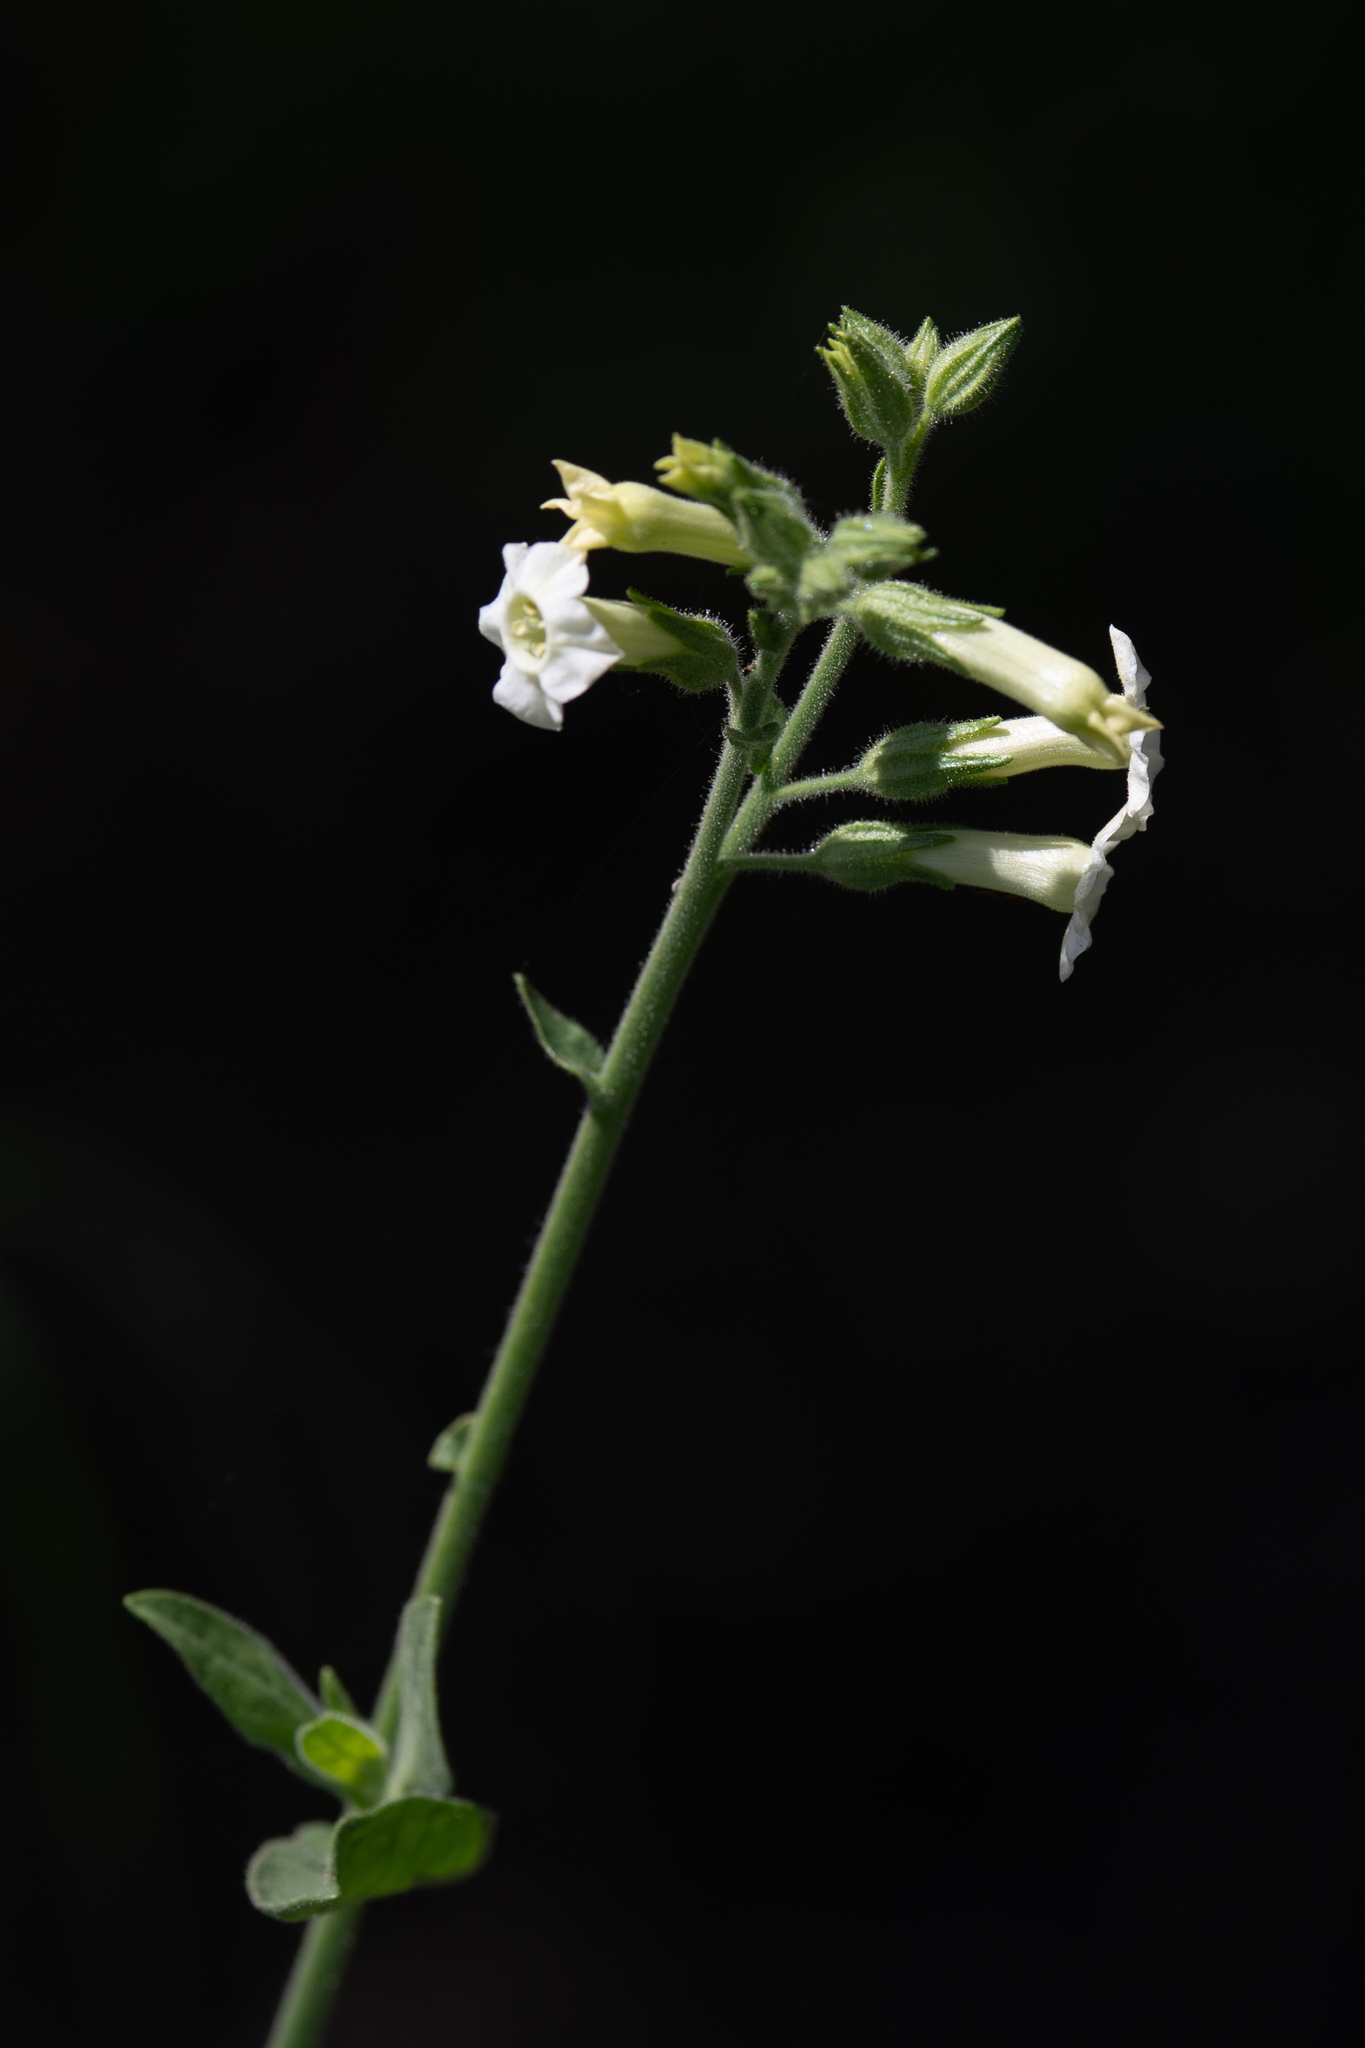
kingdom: Plantae
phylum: Tracheophyta
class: Magnoliopsida
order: Solanales
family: Solanaceae
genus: Nicotiana
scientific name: Nicotiana obtusifolia
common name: Desert tobacco
